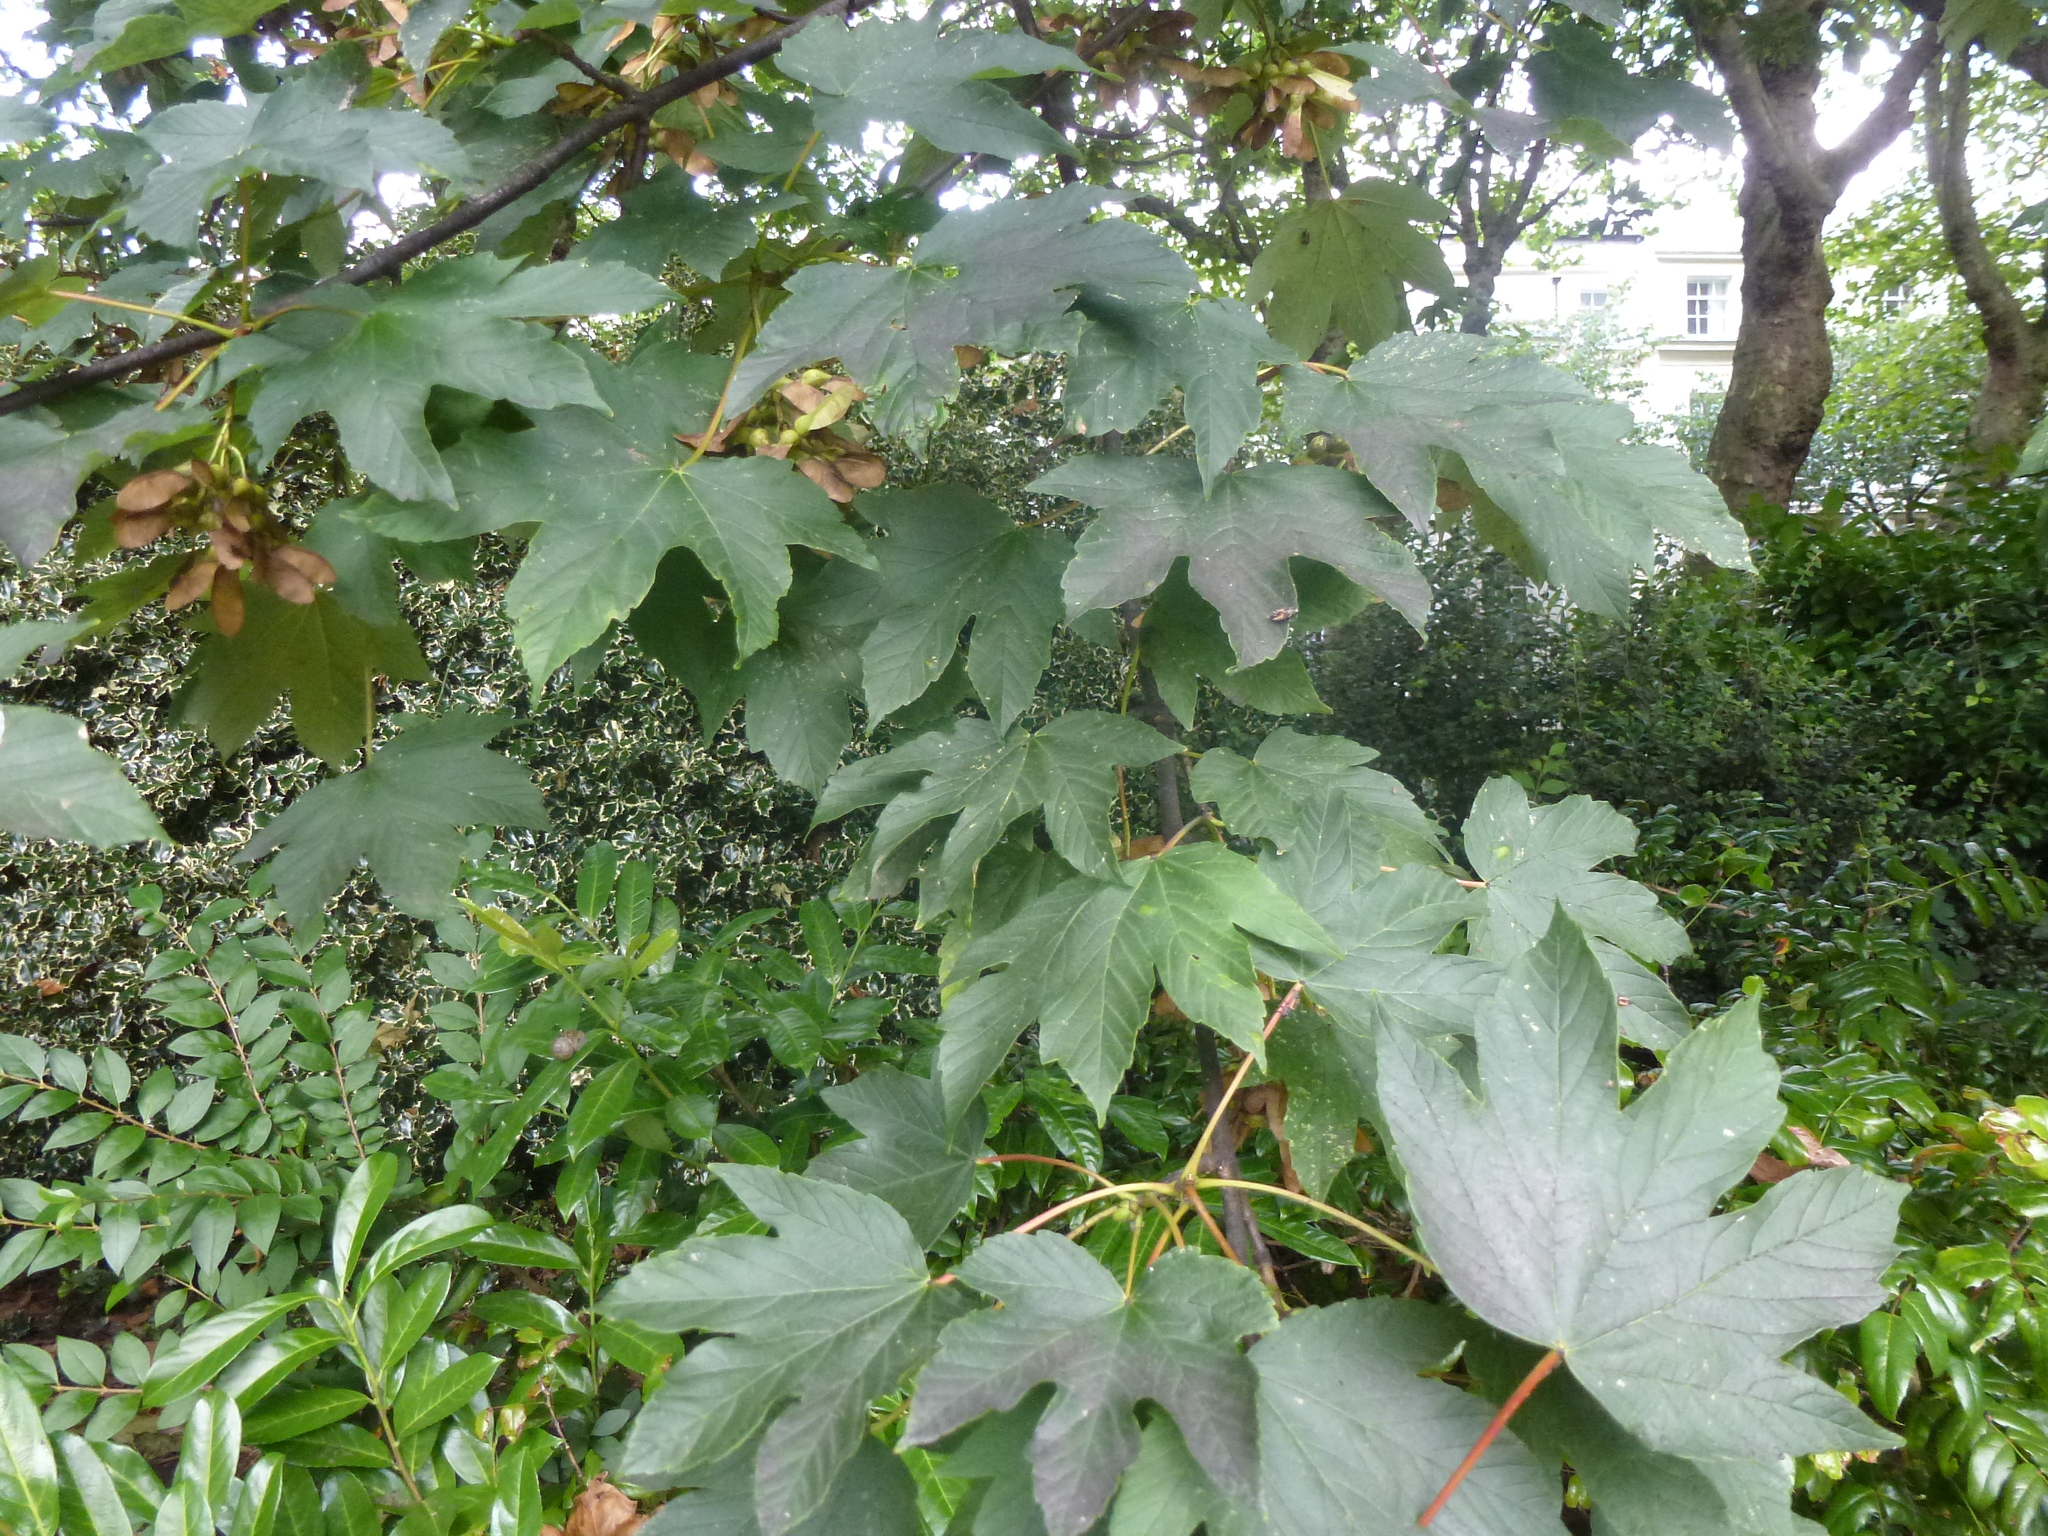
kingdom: Plantae
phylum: Tracheophyta
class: Magnoliopsida
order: Sapindales
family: Sapindaceae
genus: Acer
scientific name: Acer pseudoplatanus
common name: Sycamore
